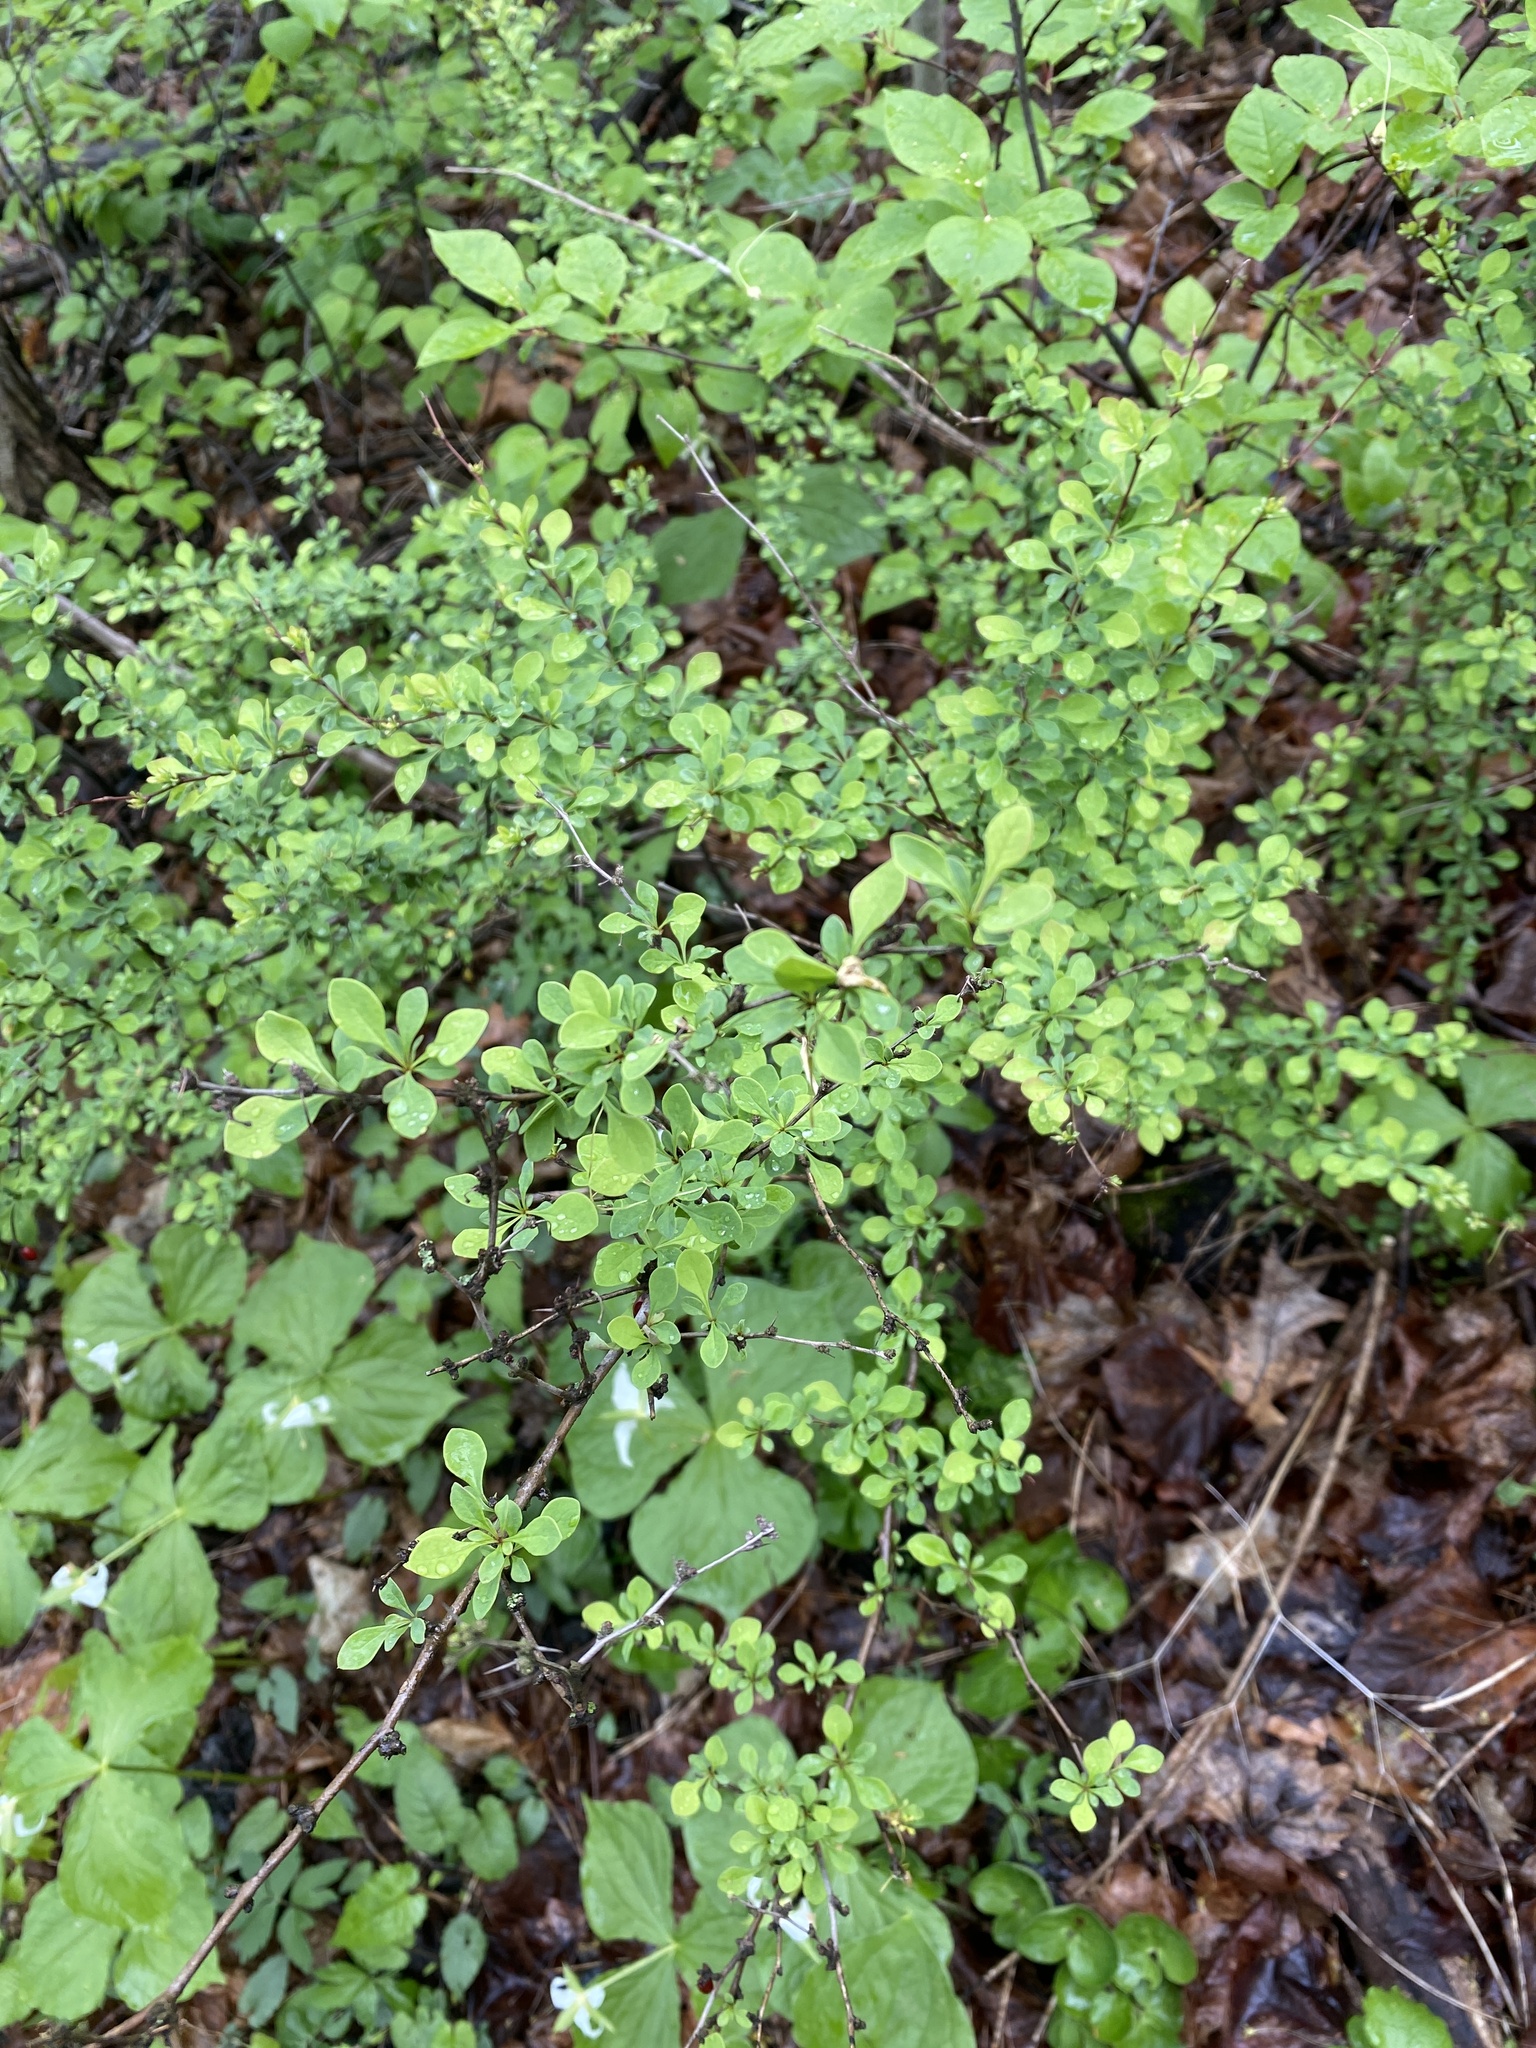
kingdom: Plantae
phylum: Tracheophyta
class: Magnoliopsida
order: Ranunculales
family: Berberidaceae
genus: Berberis
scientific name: Berberis thunbergii
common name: Japanese barberry
